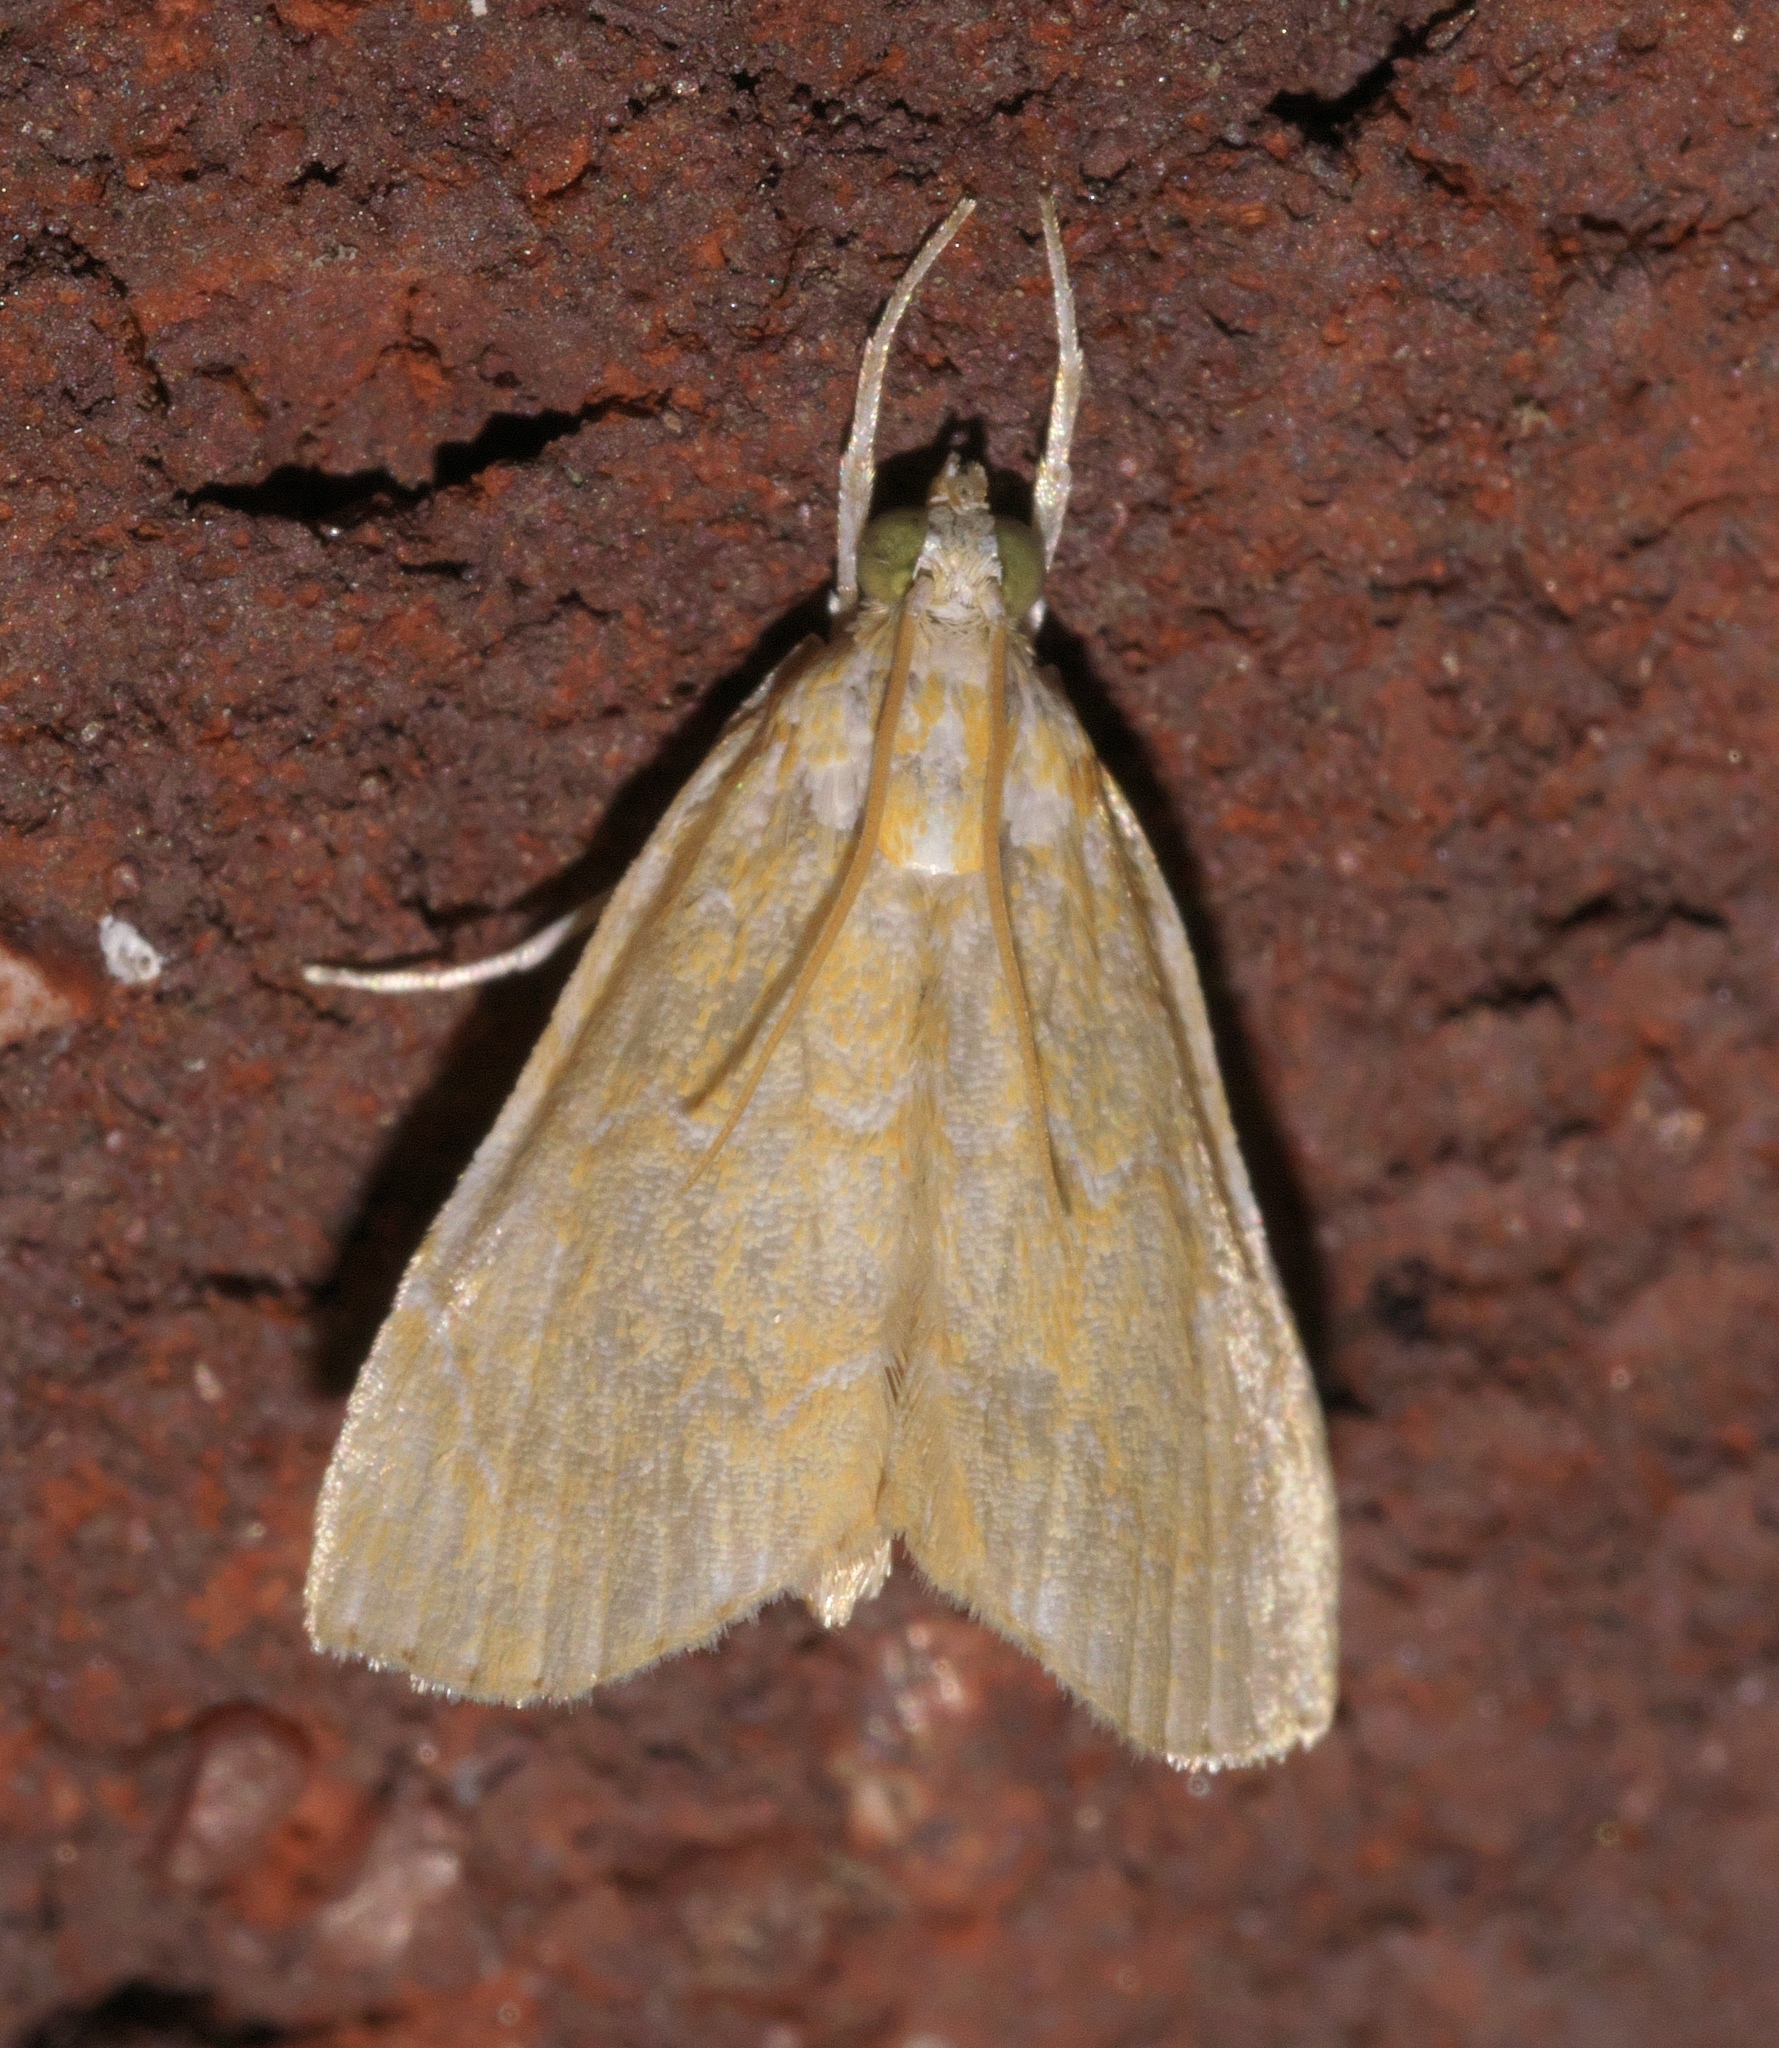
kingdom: Animalia
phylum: Arthropoda
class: Insecta
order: Lepidoptera
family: Crambidae
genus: Glaphyria
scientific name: Glaphyria glaphyralis
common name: Common glaphyria moth
